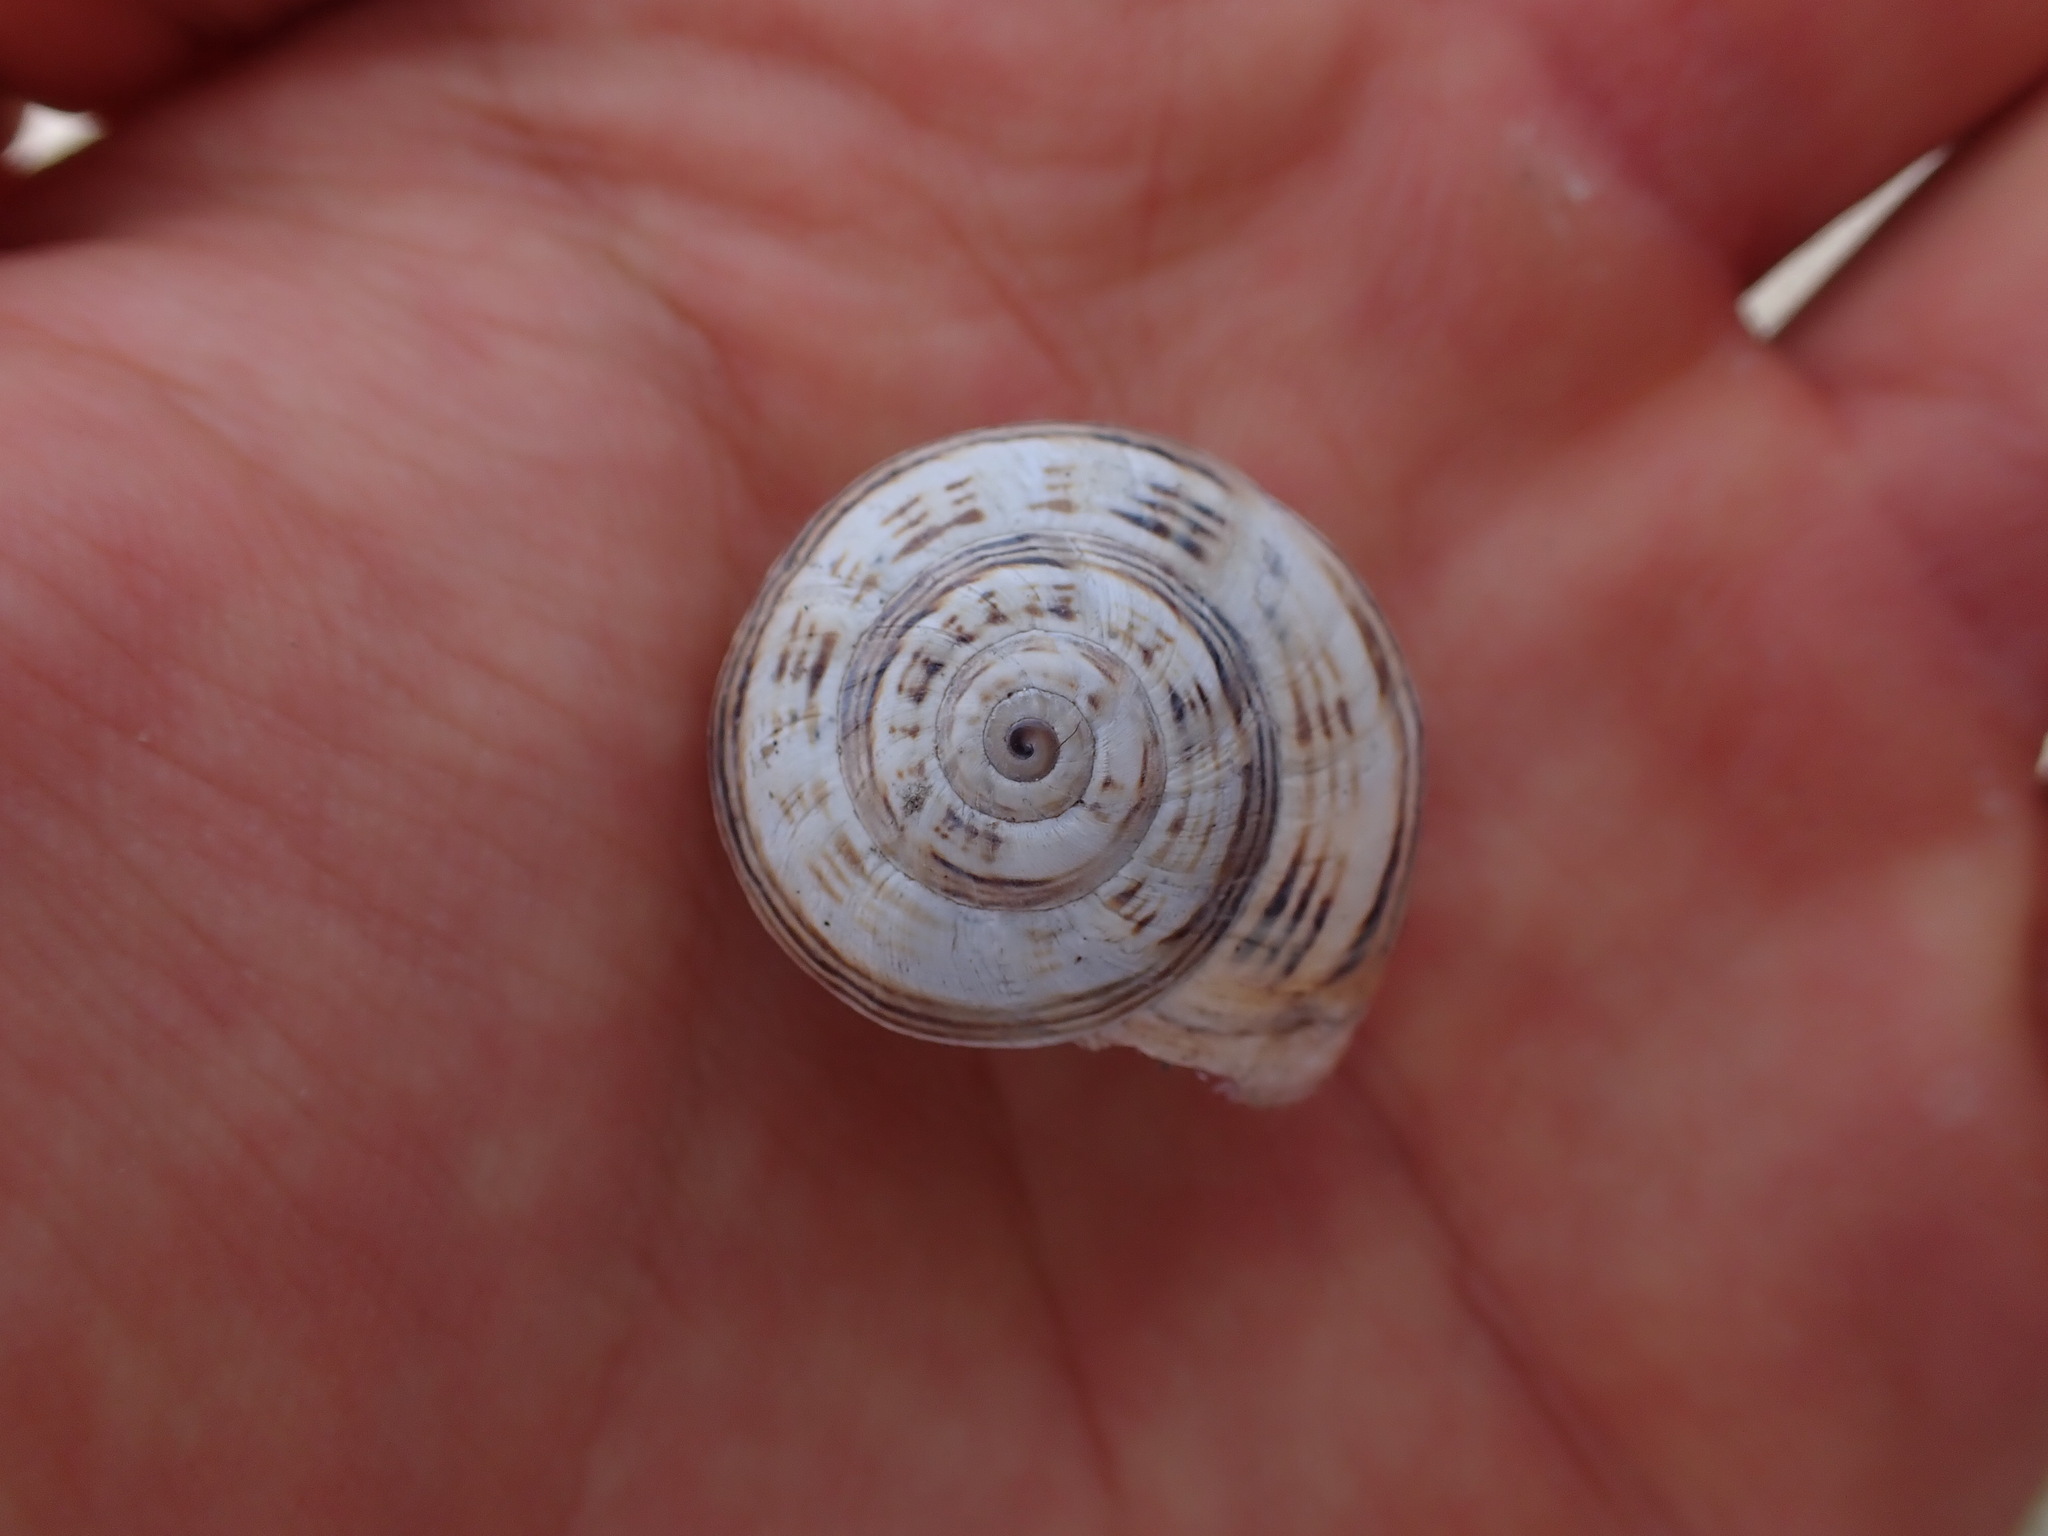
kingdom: Animalia
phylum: Mollusca
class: Gastropoda
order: Stylommatophora
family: Helicidae
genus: Theba
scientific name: Theba pisana
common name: White snail
